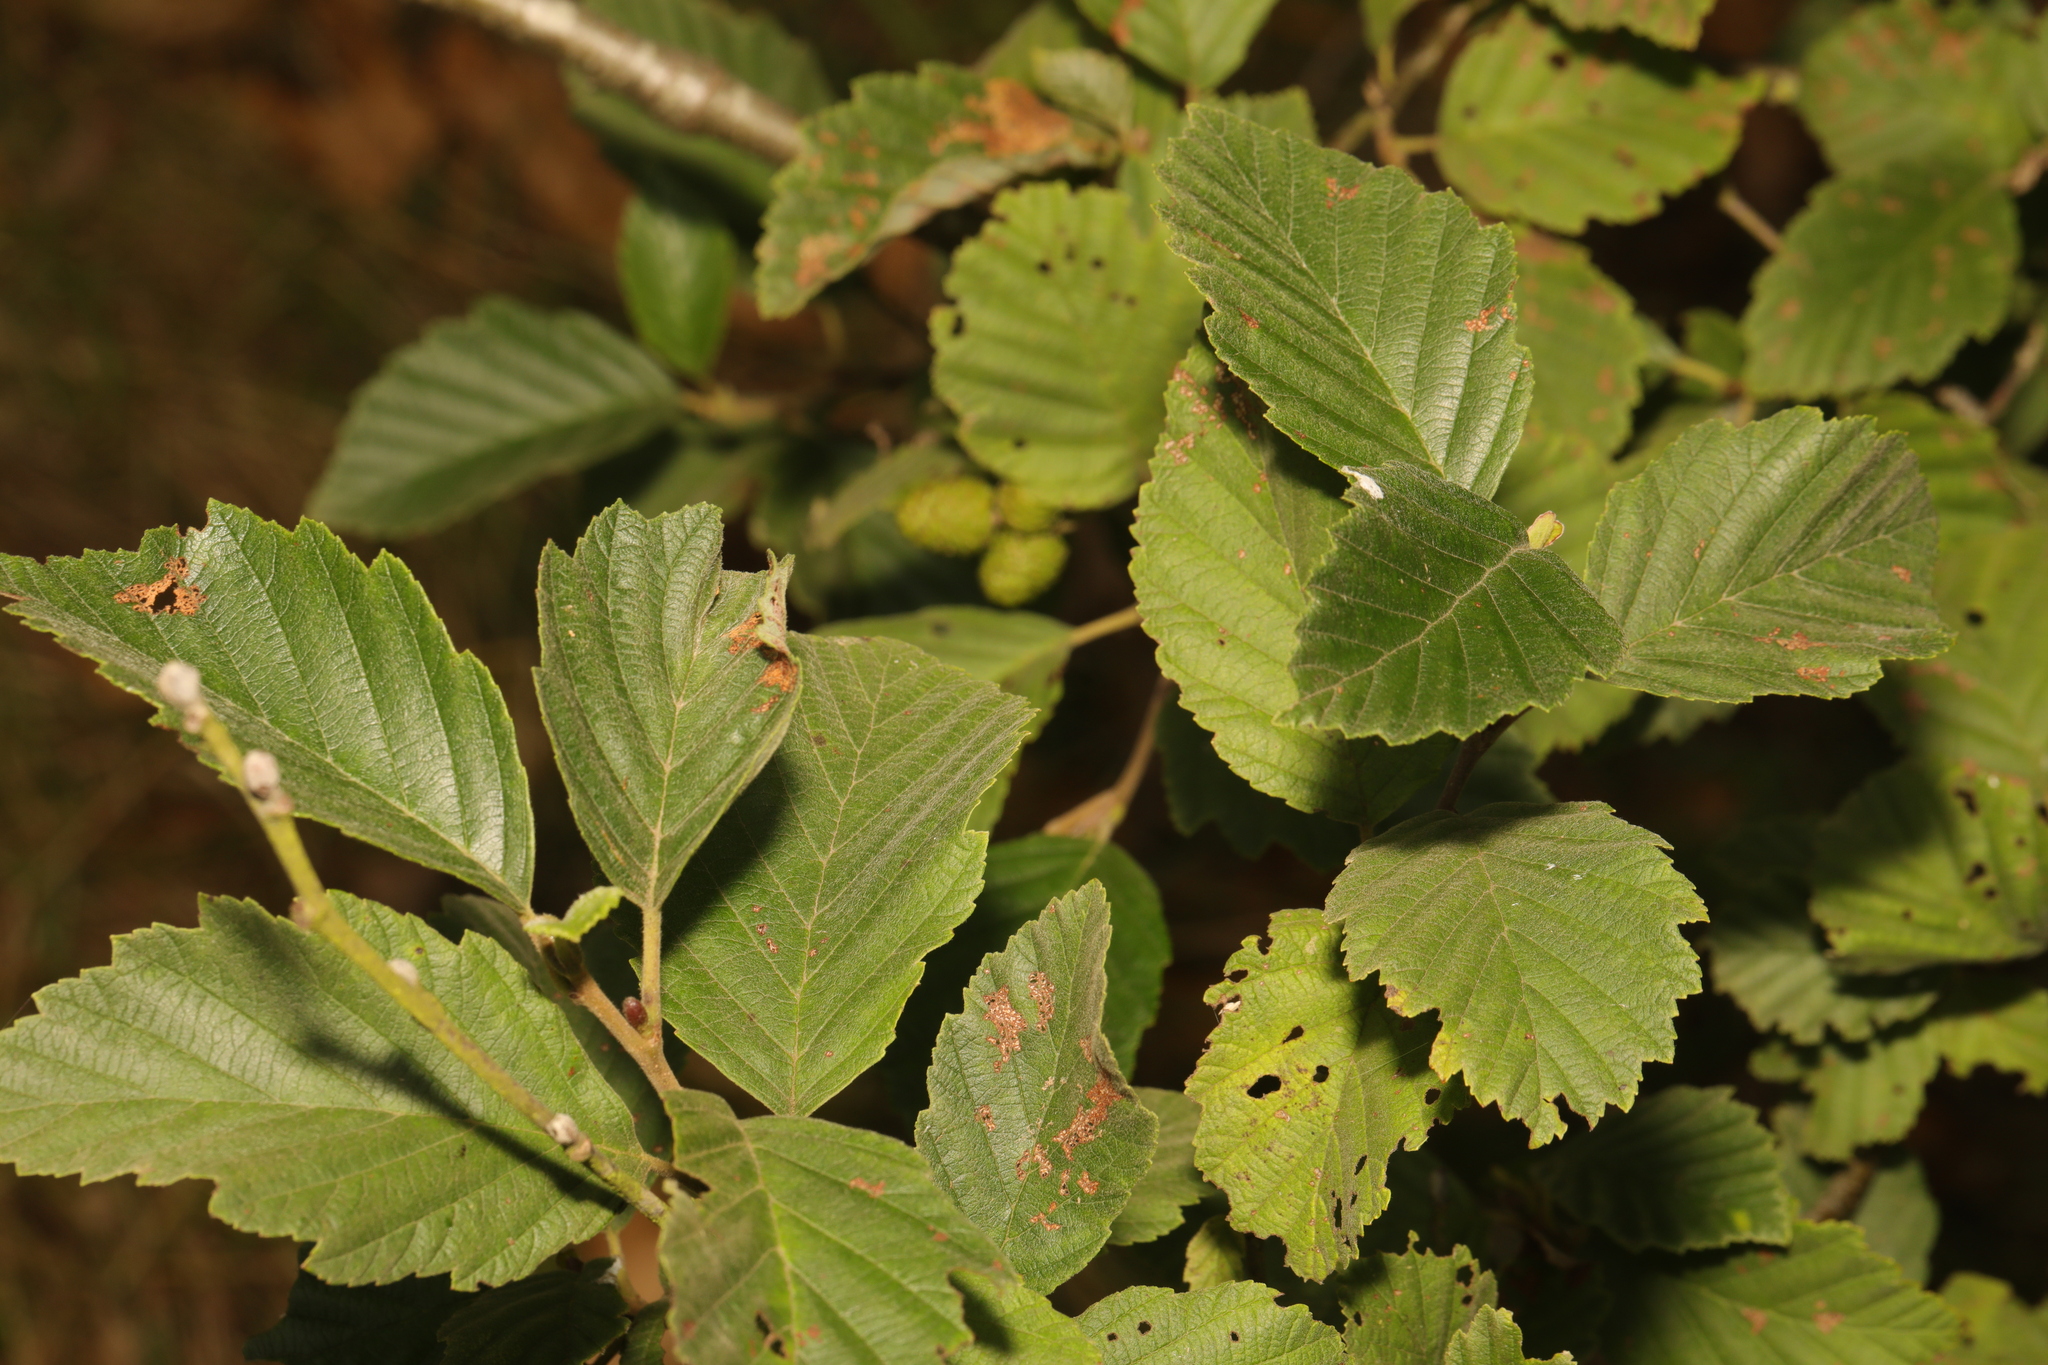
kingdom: Plantae
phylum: Tracheophyta
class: Magnoliopsida
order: Fagales
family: Betulaceae
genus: Alnus
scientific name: Alnus incana
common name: Grey alder
